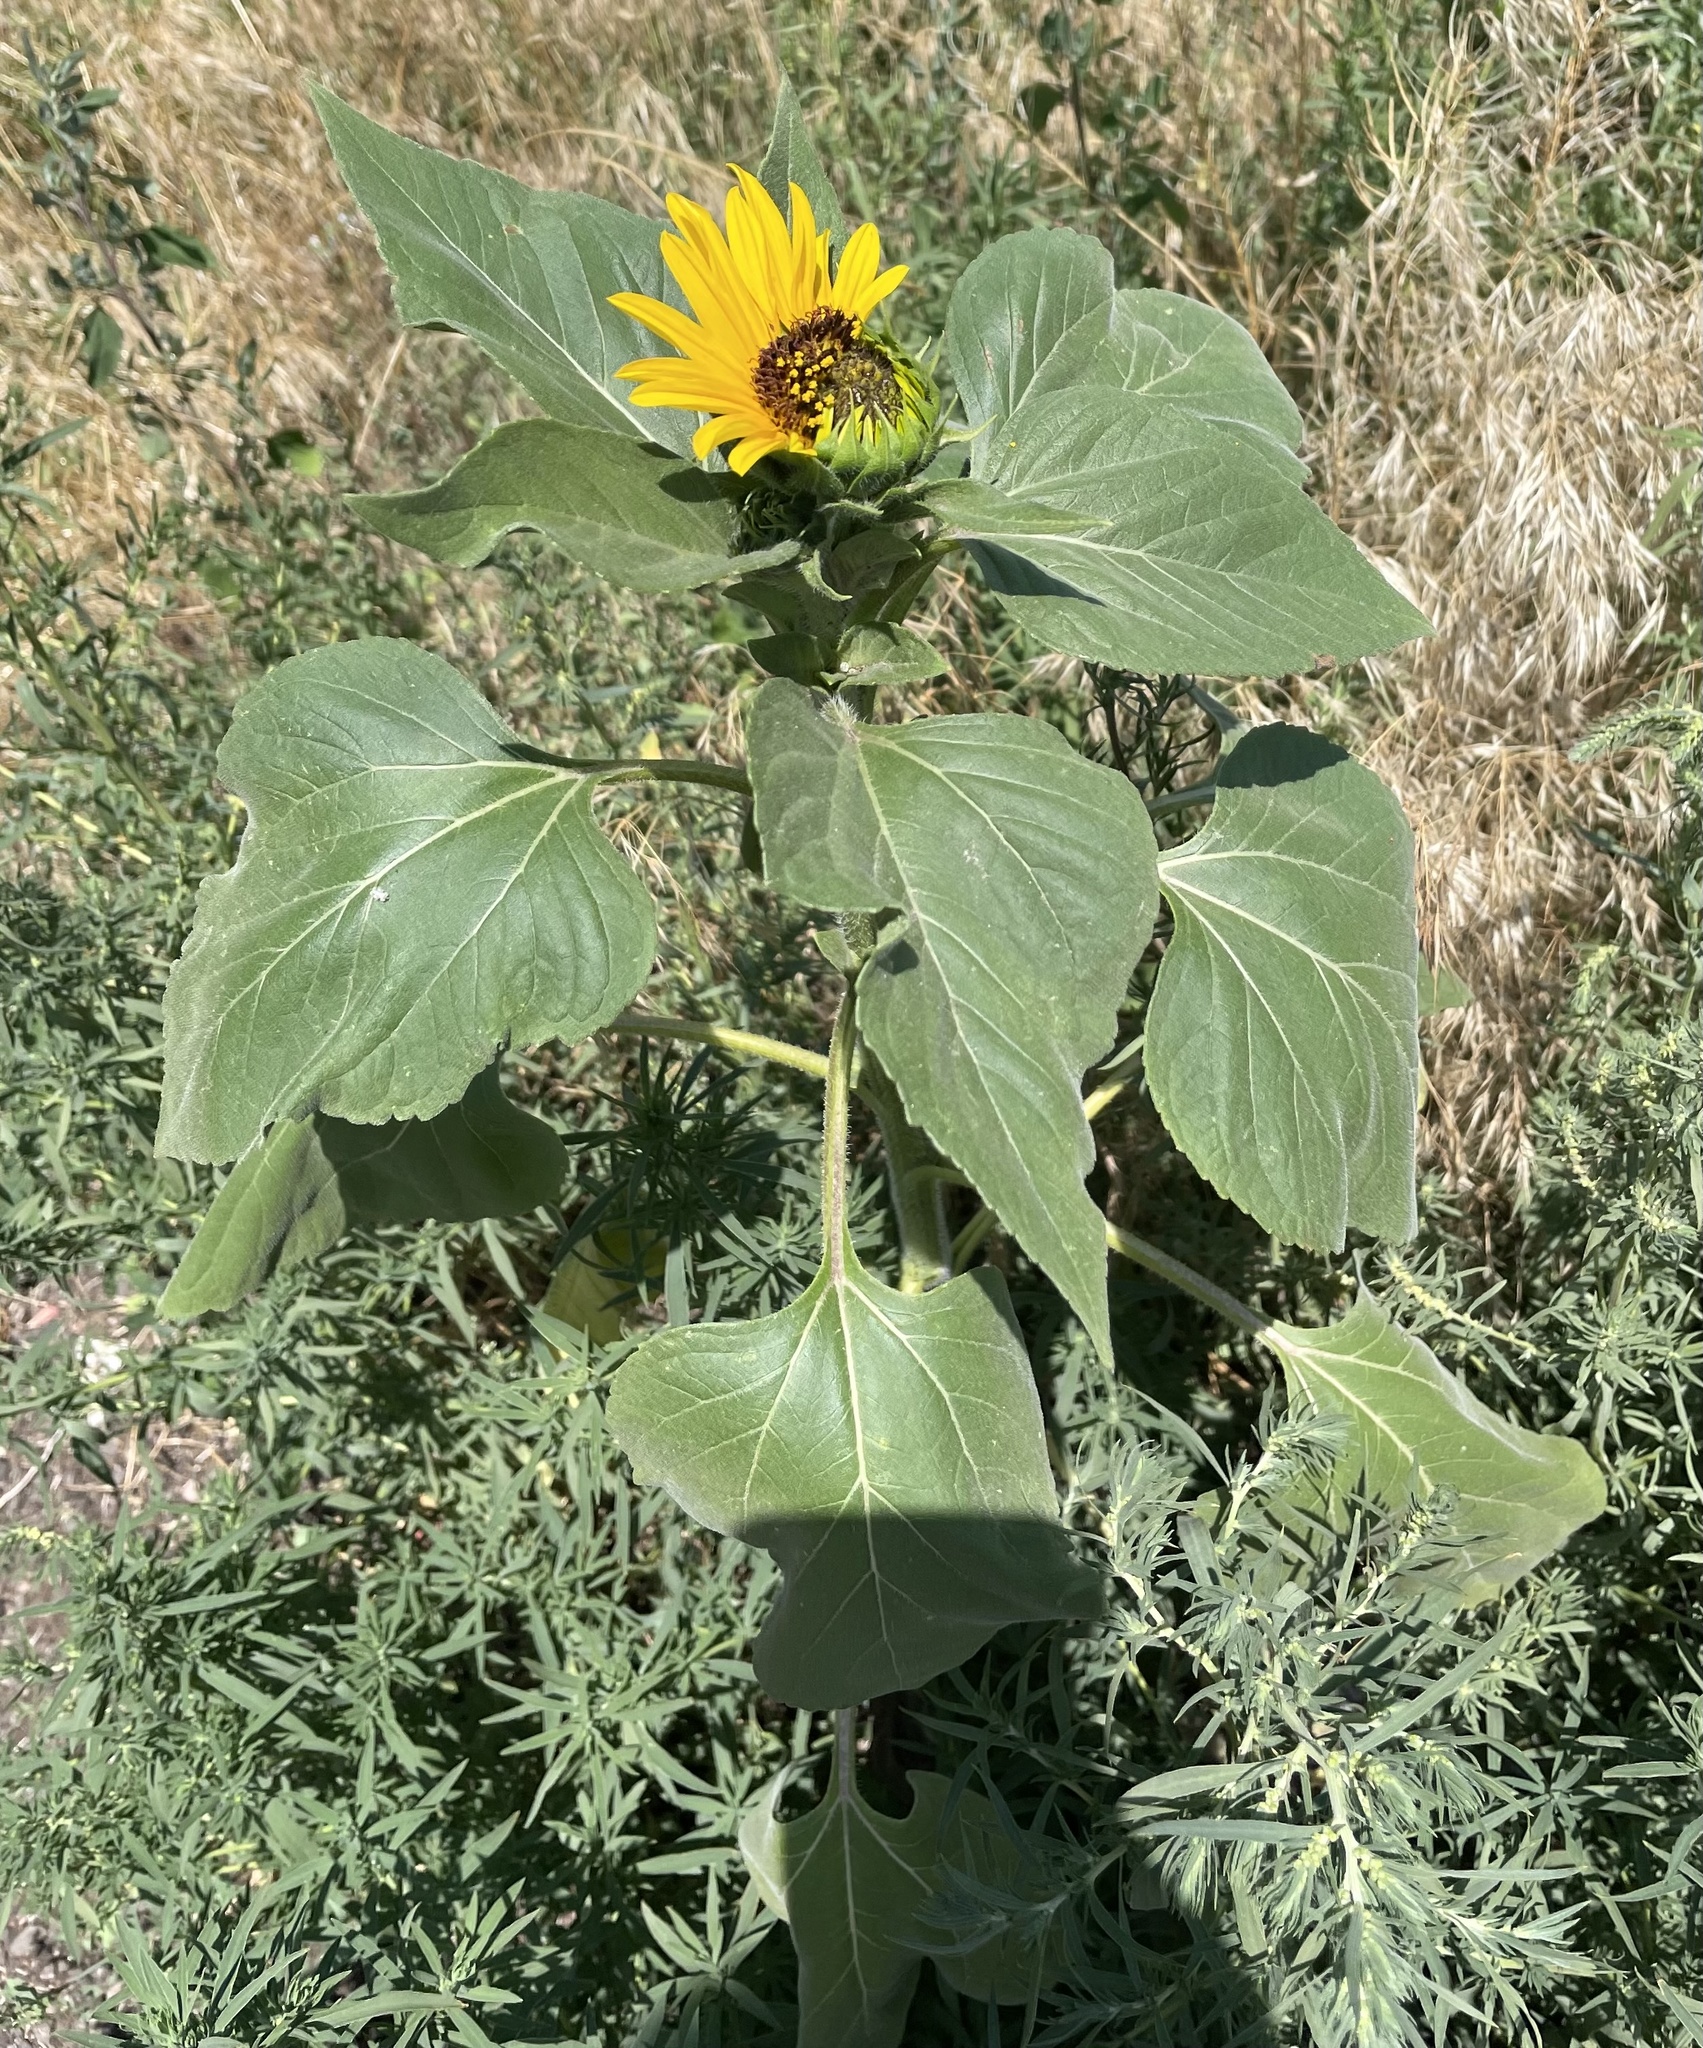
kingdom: Plantae
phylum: Tracheophyta
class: Magnoliopsida
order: Asterales
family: Asteraceae
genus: Helianthus
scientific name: Helianthus annuus
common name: Sunflower
